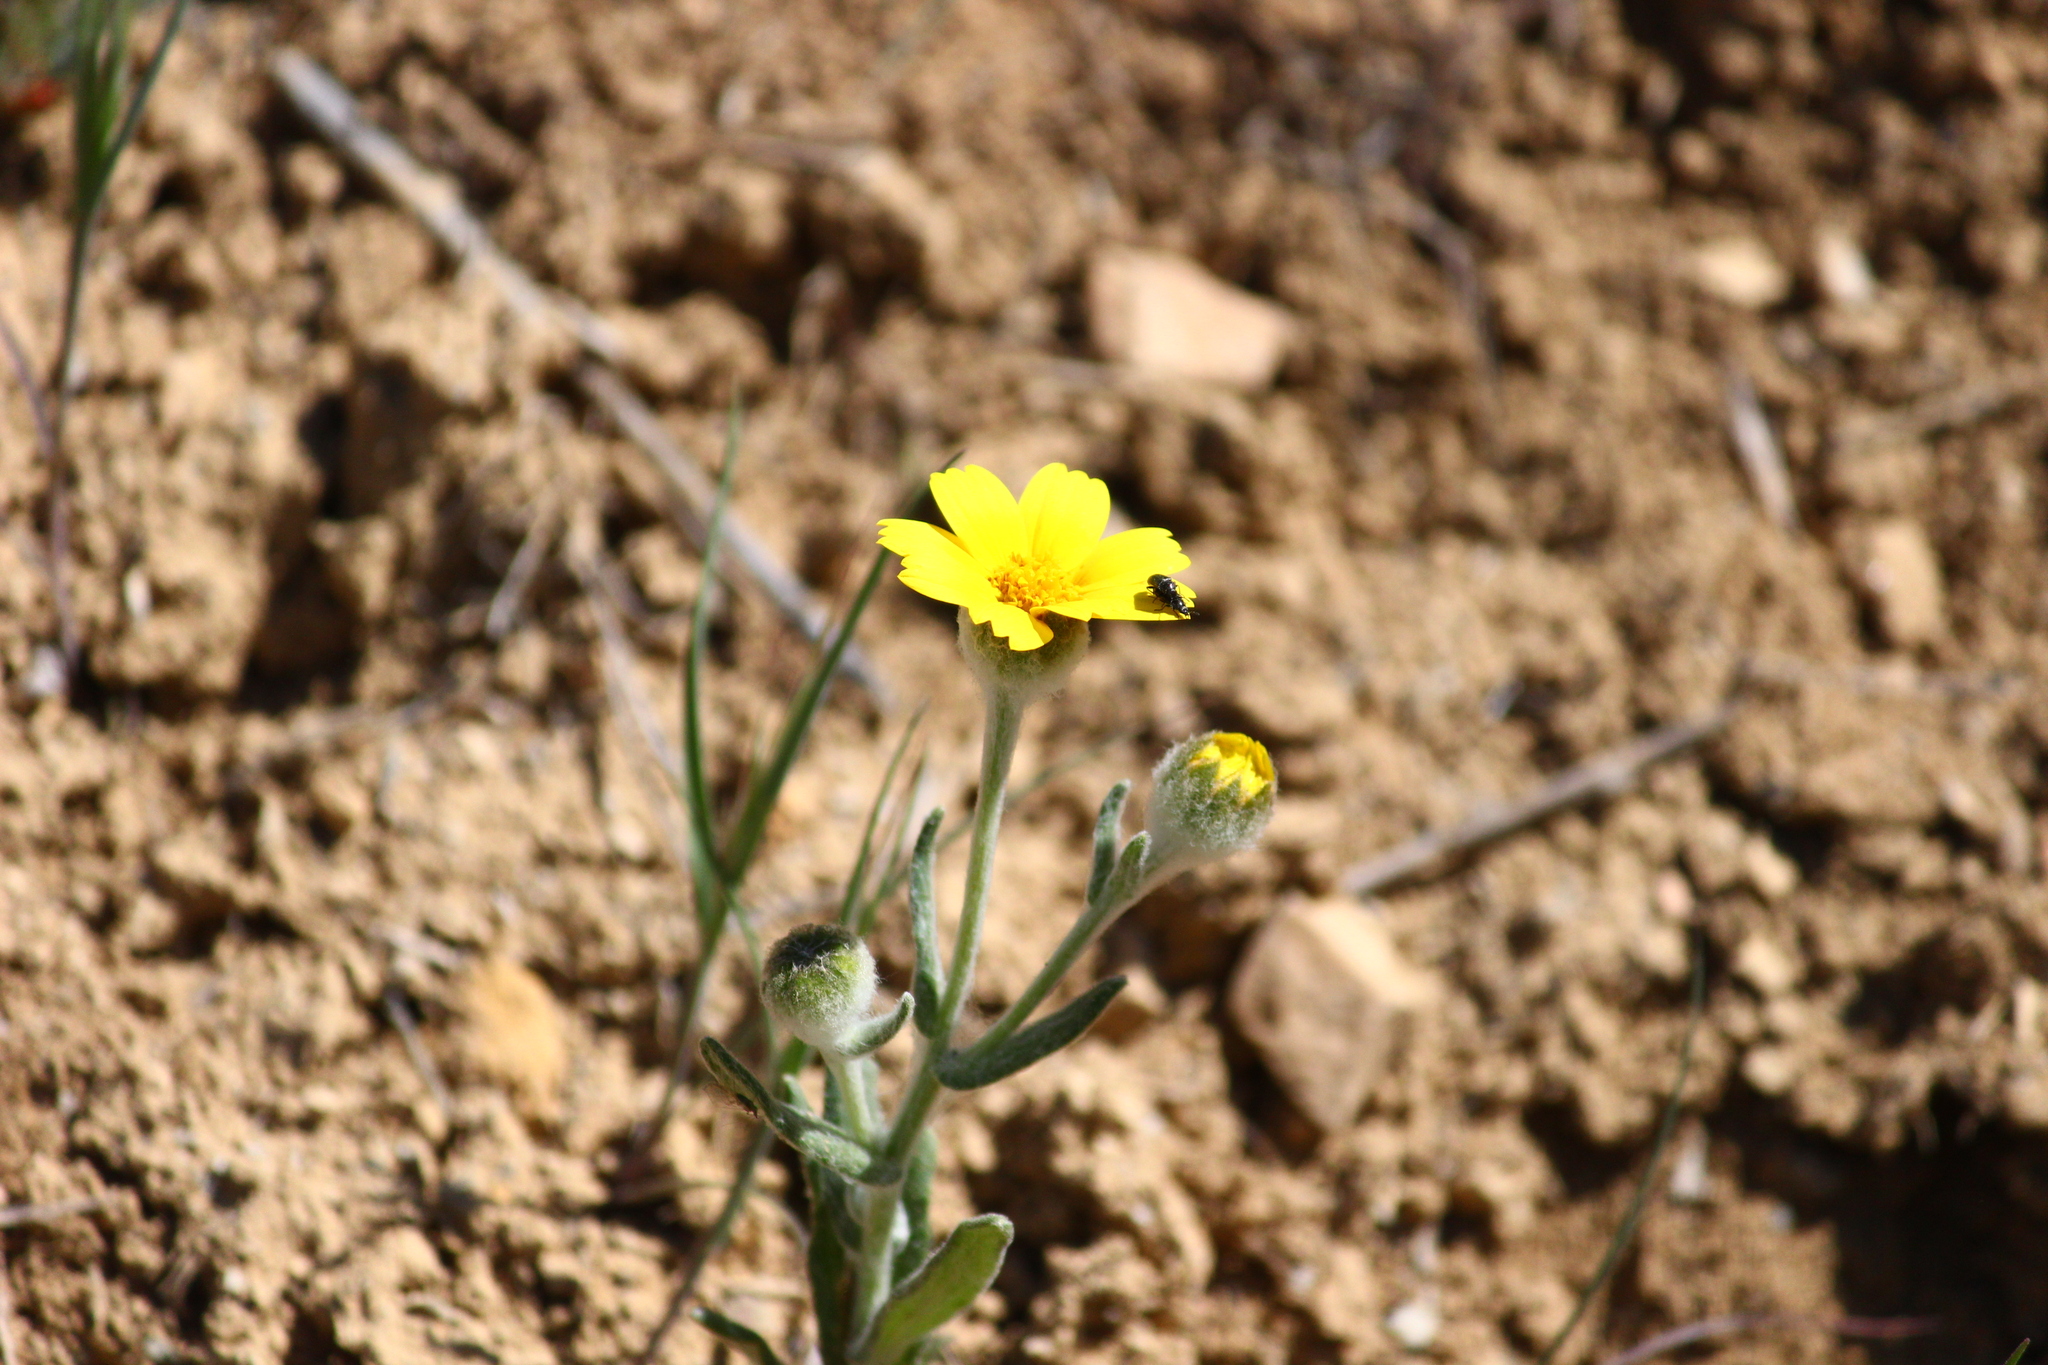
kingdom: Plantae
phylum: Tracheophyta
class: Magnoliopsida
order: Asterales
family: Asteraceae
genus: Monolopia
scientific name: Monolopia lanceolata
